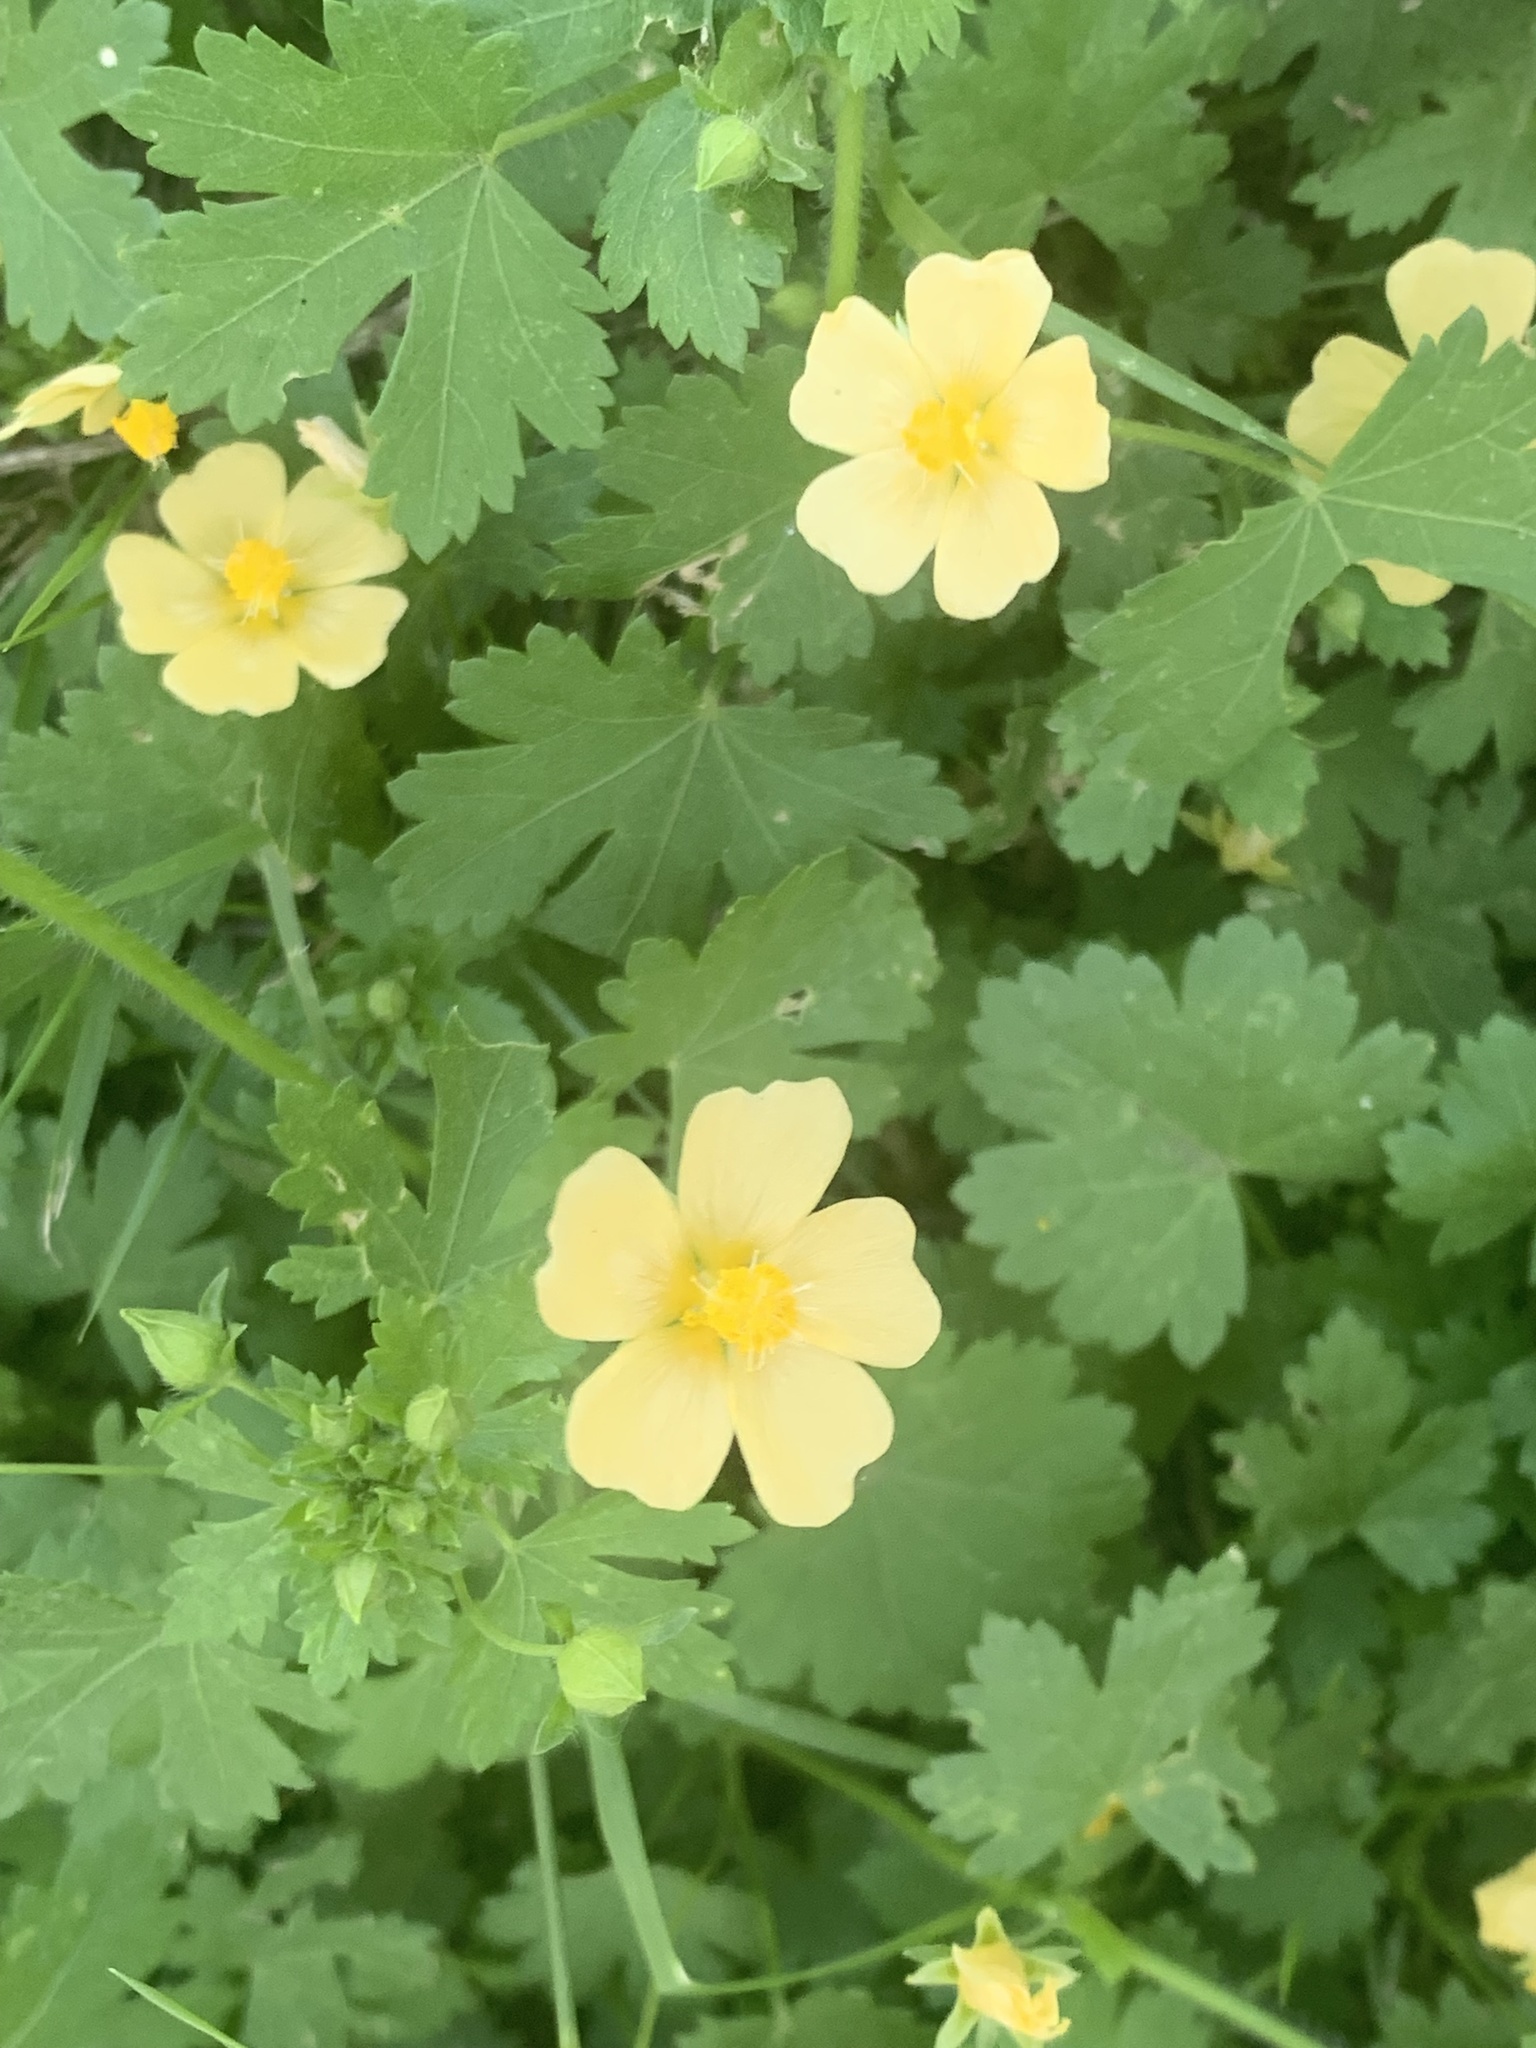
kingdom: Plantae
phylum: Tracheophyta
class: Magnoliopsida
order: Malvales
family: Malvaceae
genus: Modiolastrum
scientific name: Modiolastrum malvifolium
